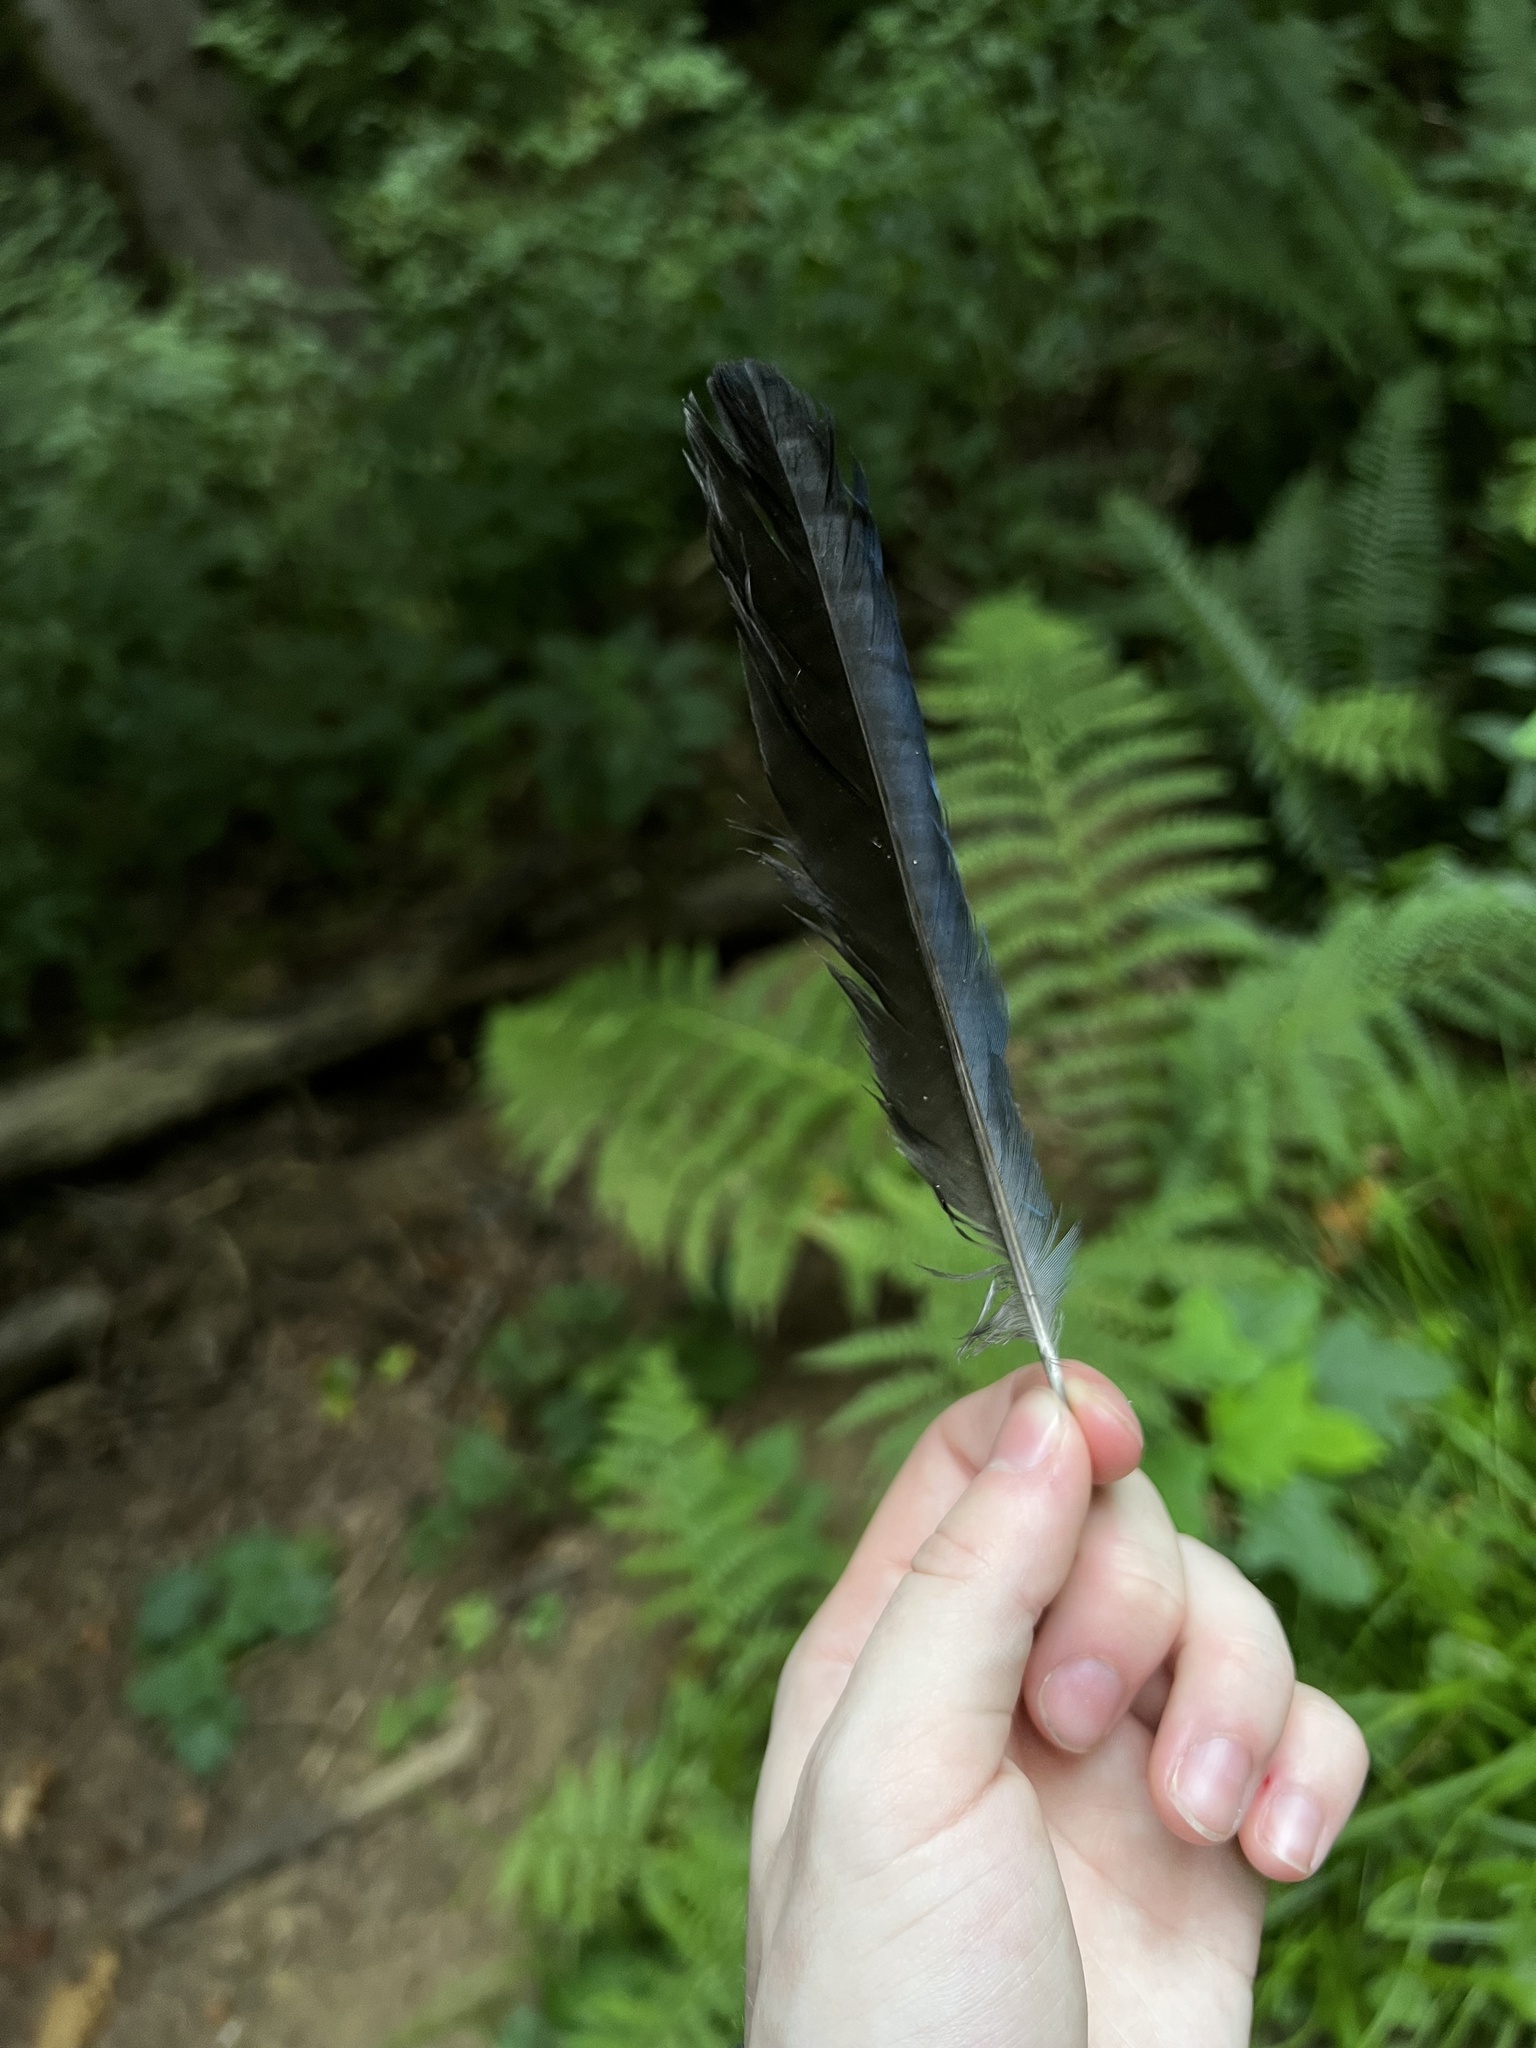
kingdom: Animalia
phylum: Chordata
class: Aves
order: Passeriformes
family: Corvidae
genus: Cyanocitta
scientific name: Cyanocitta stelleri
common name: Steller's jay
